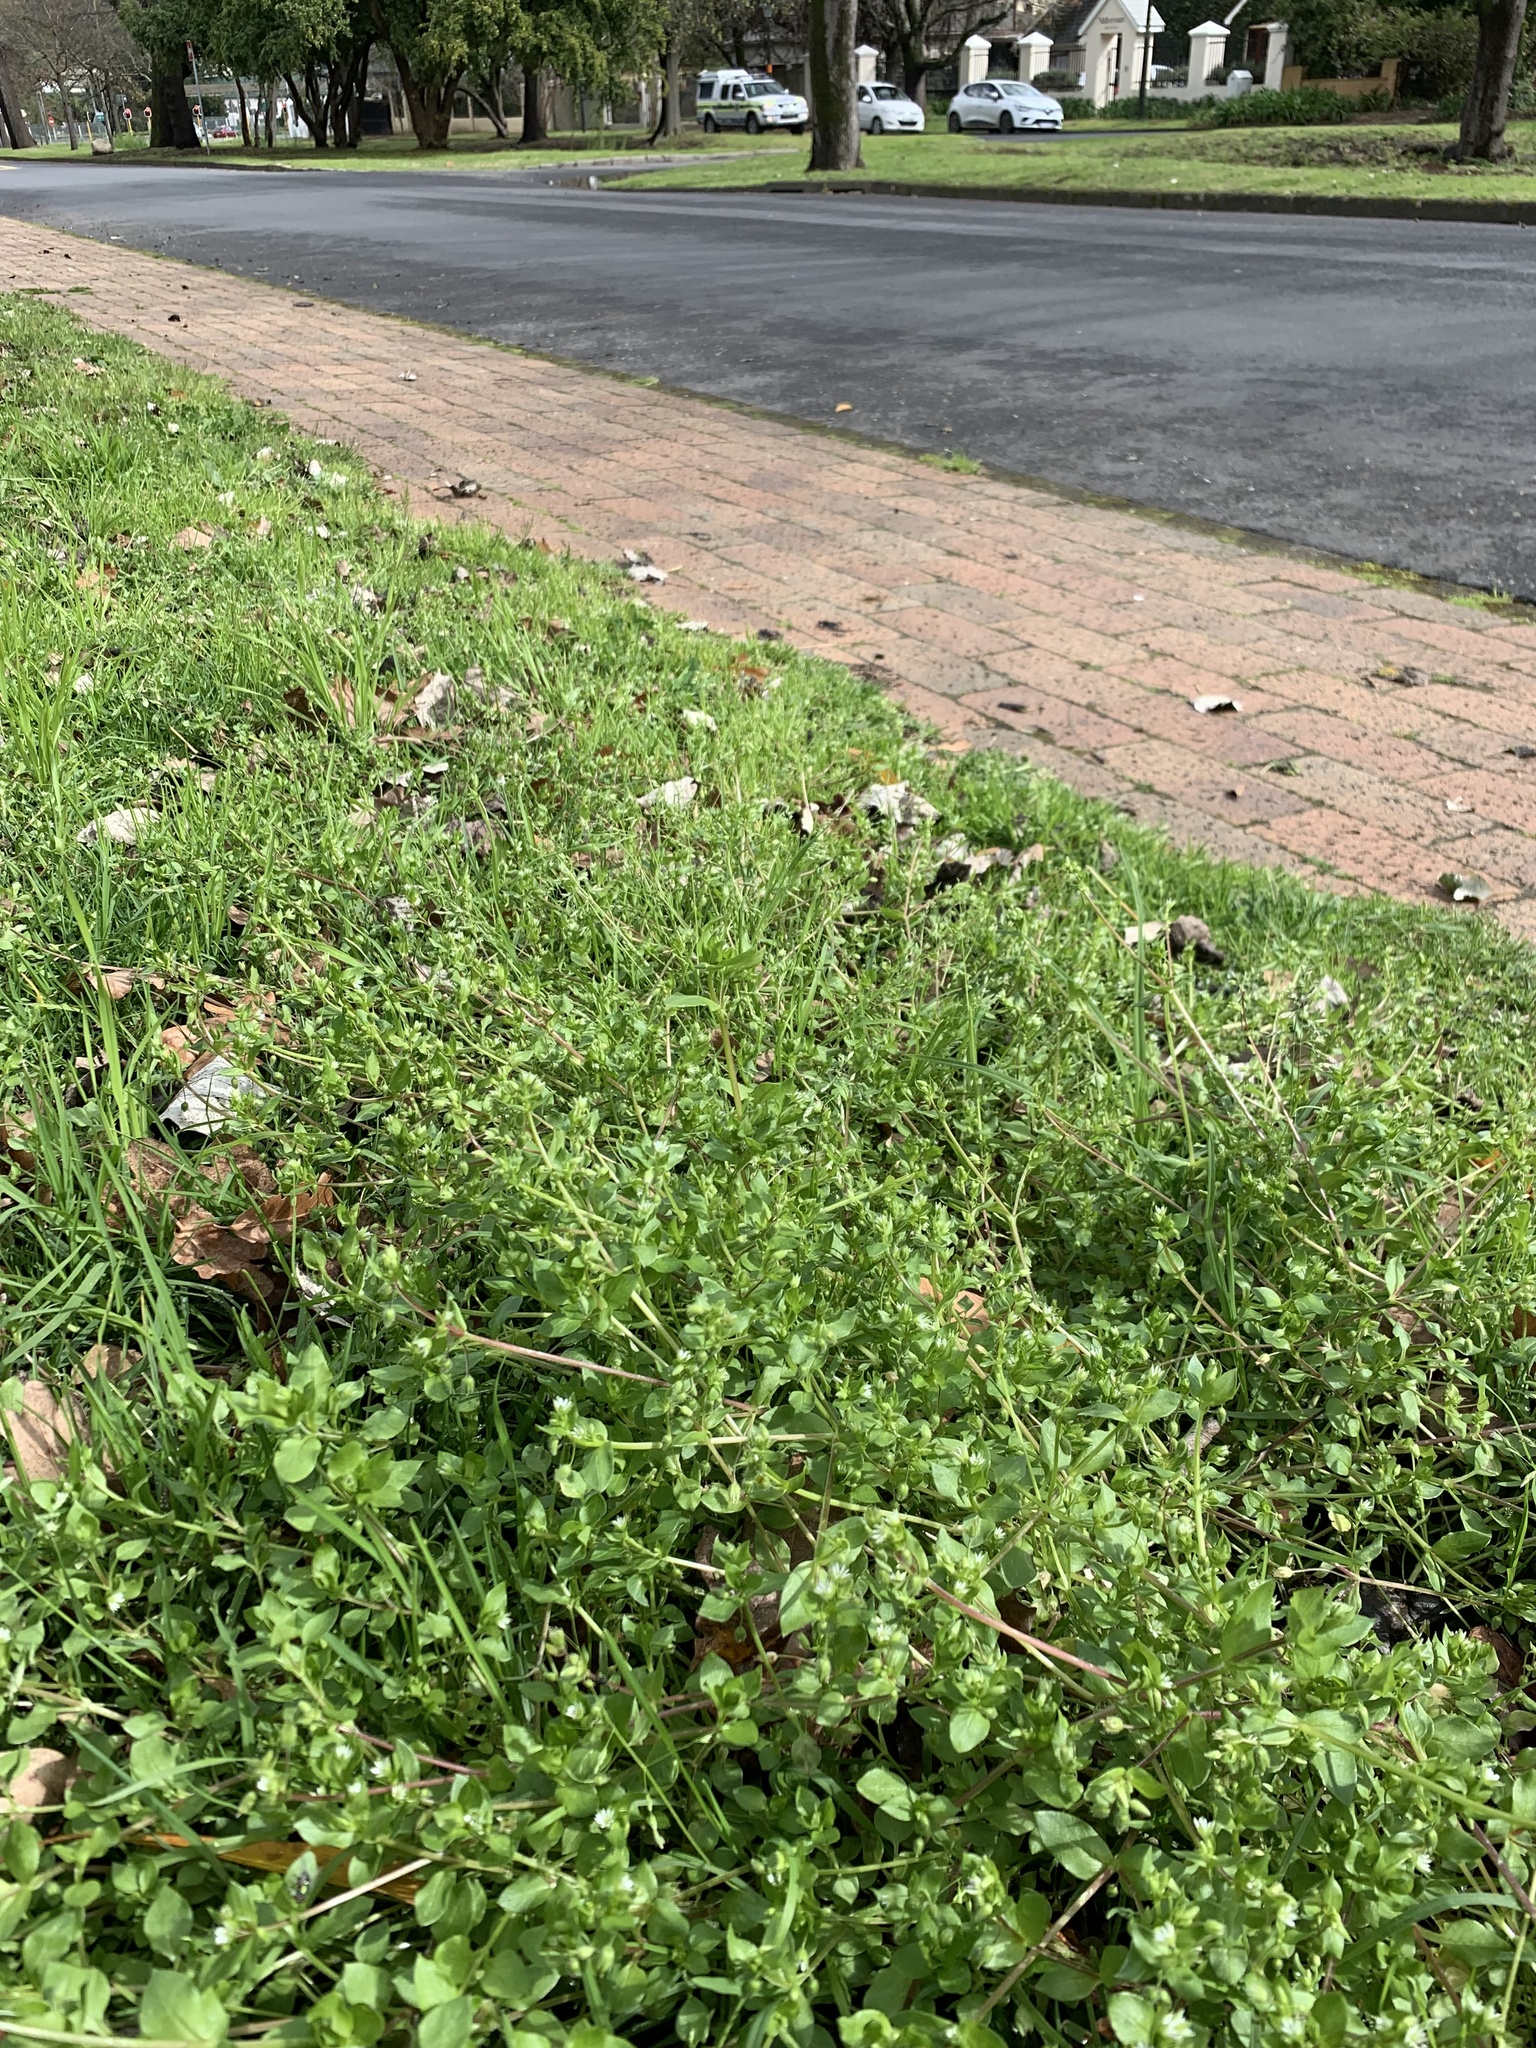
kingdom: Plantae
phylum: Tracheophyta
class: Magnoliopsida
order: Caryophyllales
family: Caryophyllaceae
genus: Stellaria
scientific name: Stellaria media
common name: Common chickweed
